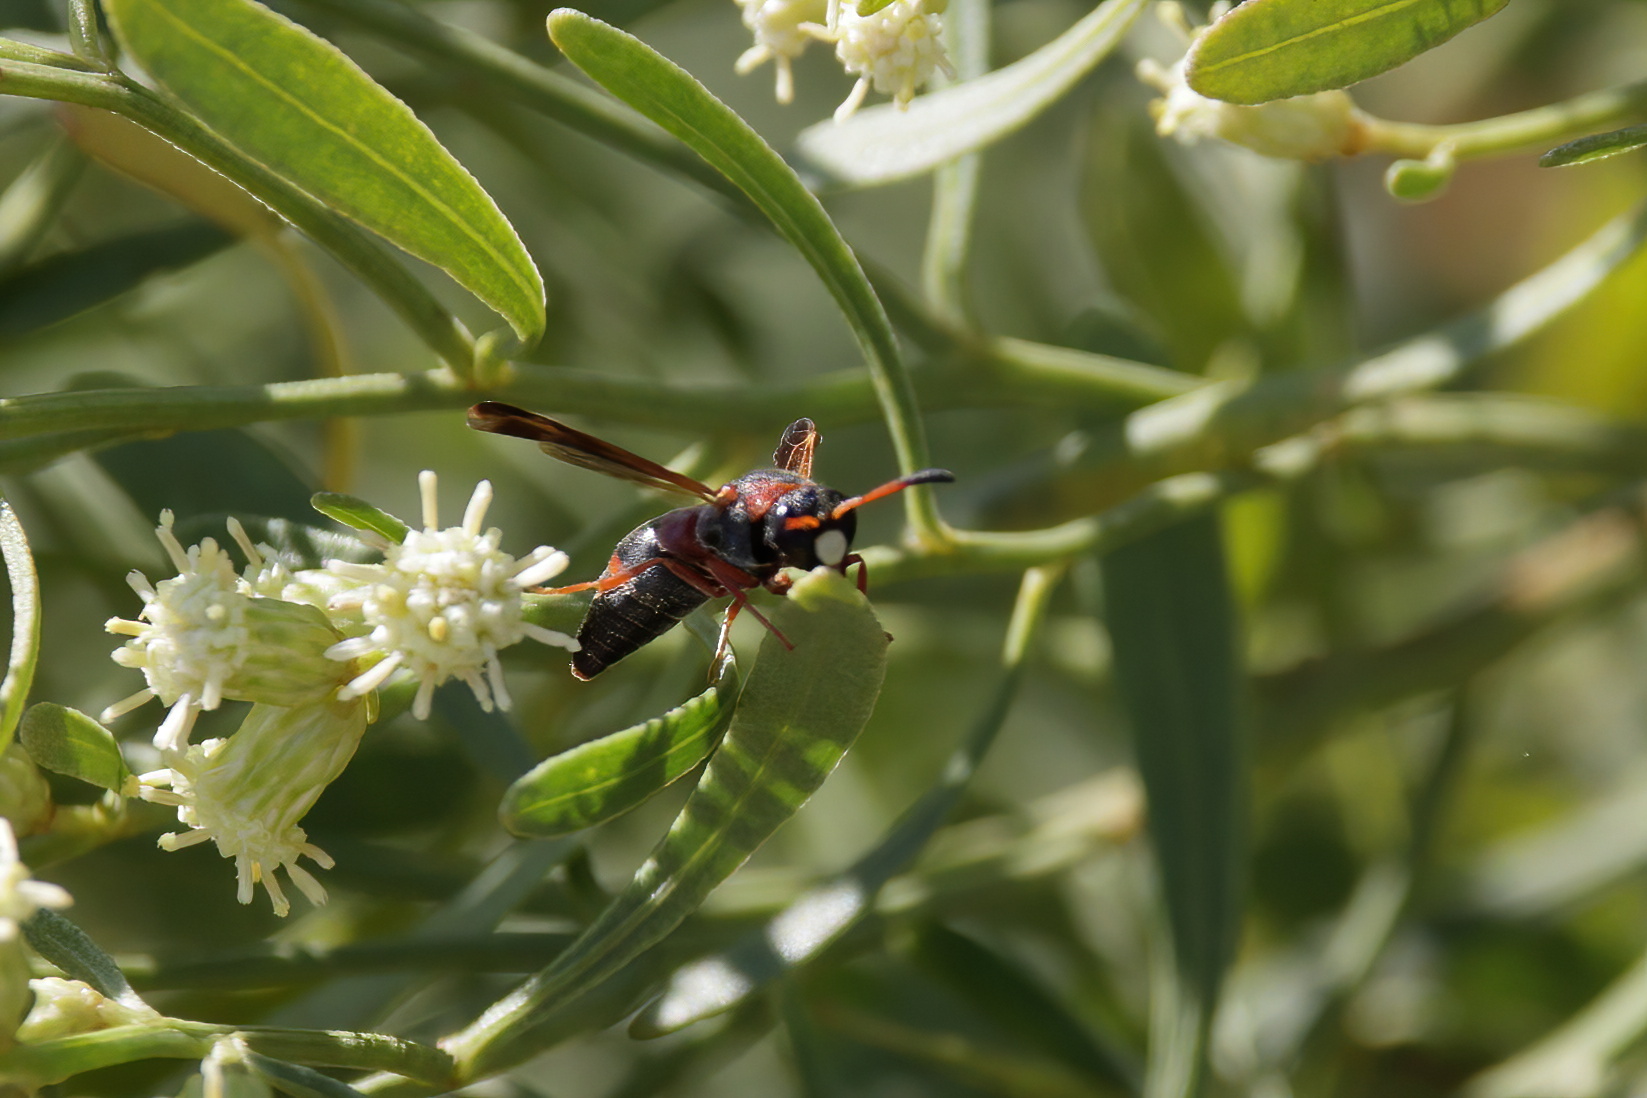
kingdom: Animalia
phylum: Arthropoda
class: Insecta
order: Hymenoptera
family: Eumenidae
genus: Pachodynerus
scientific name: Pachodynerus erynnis
